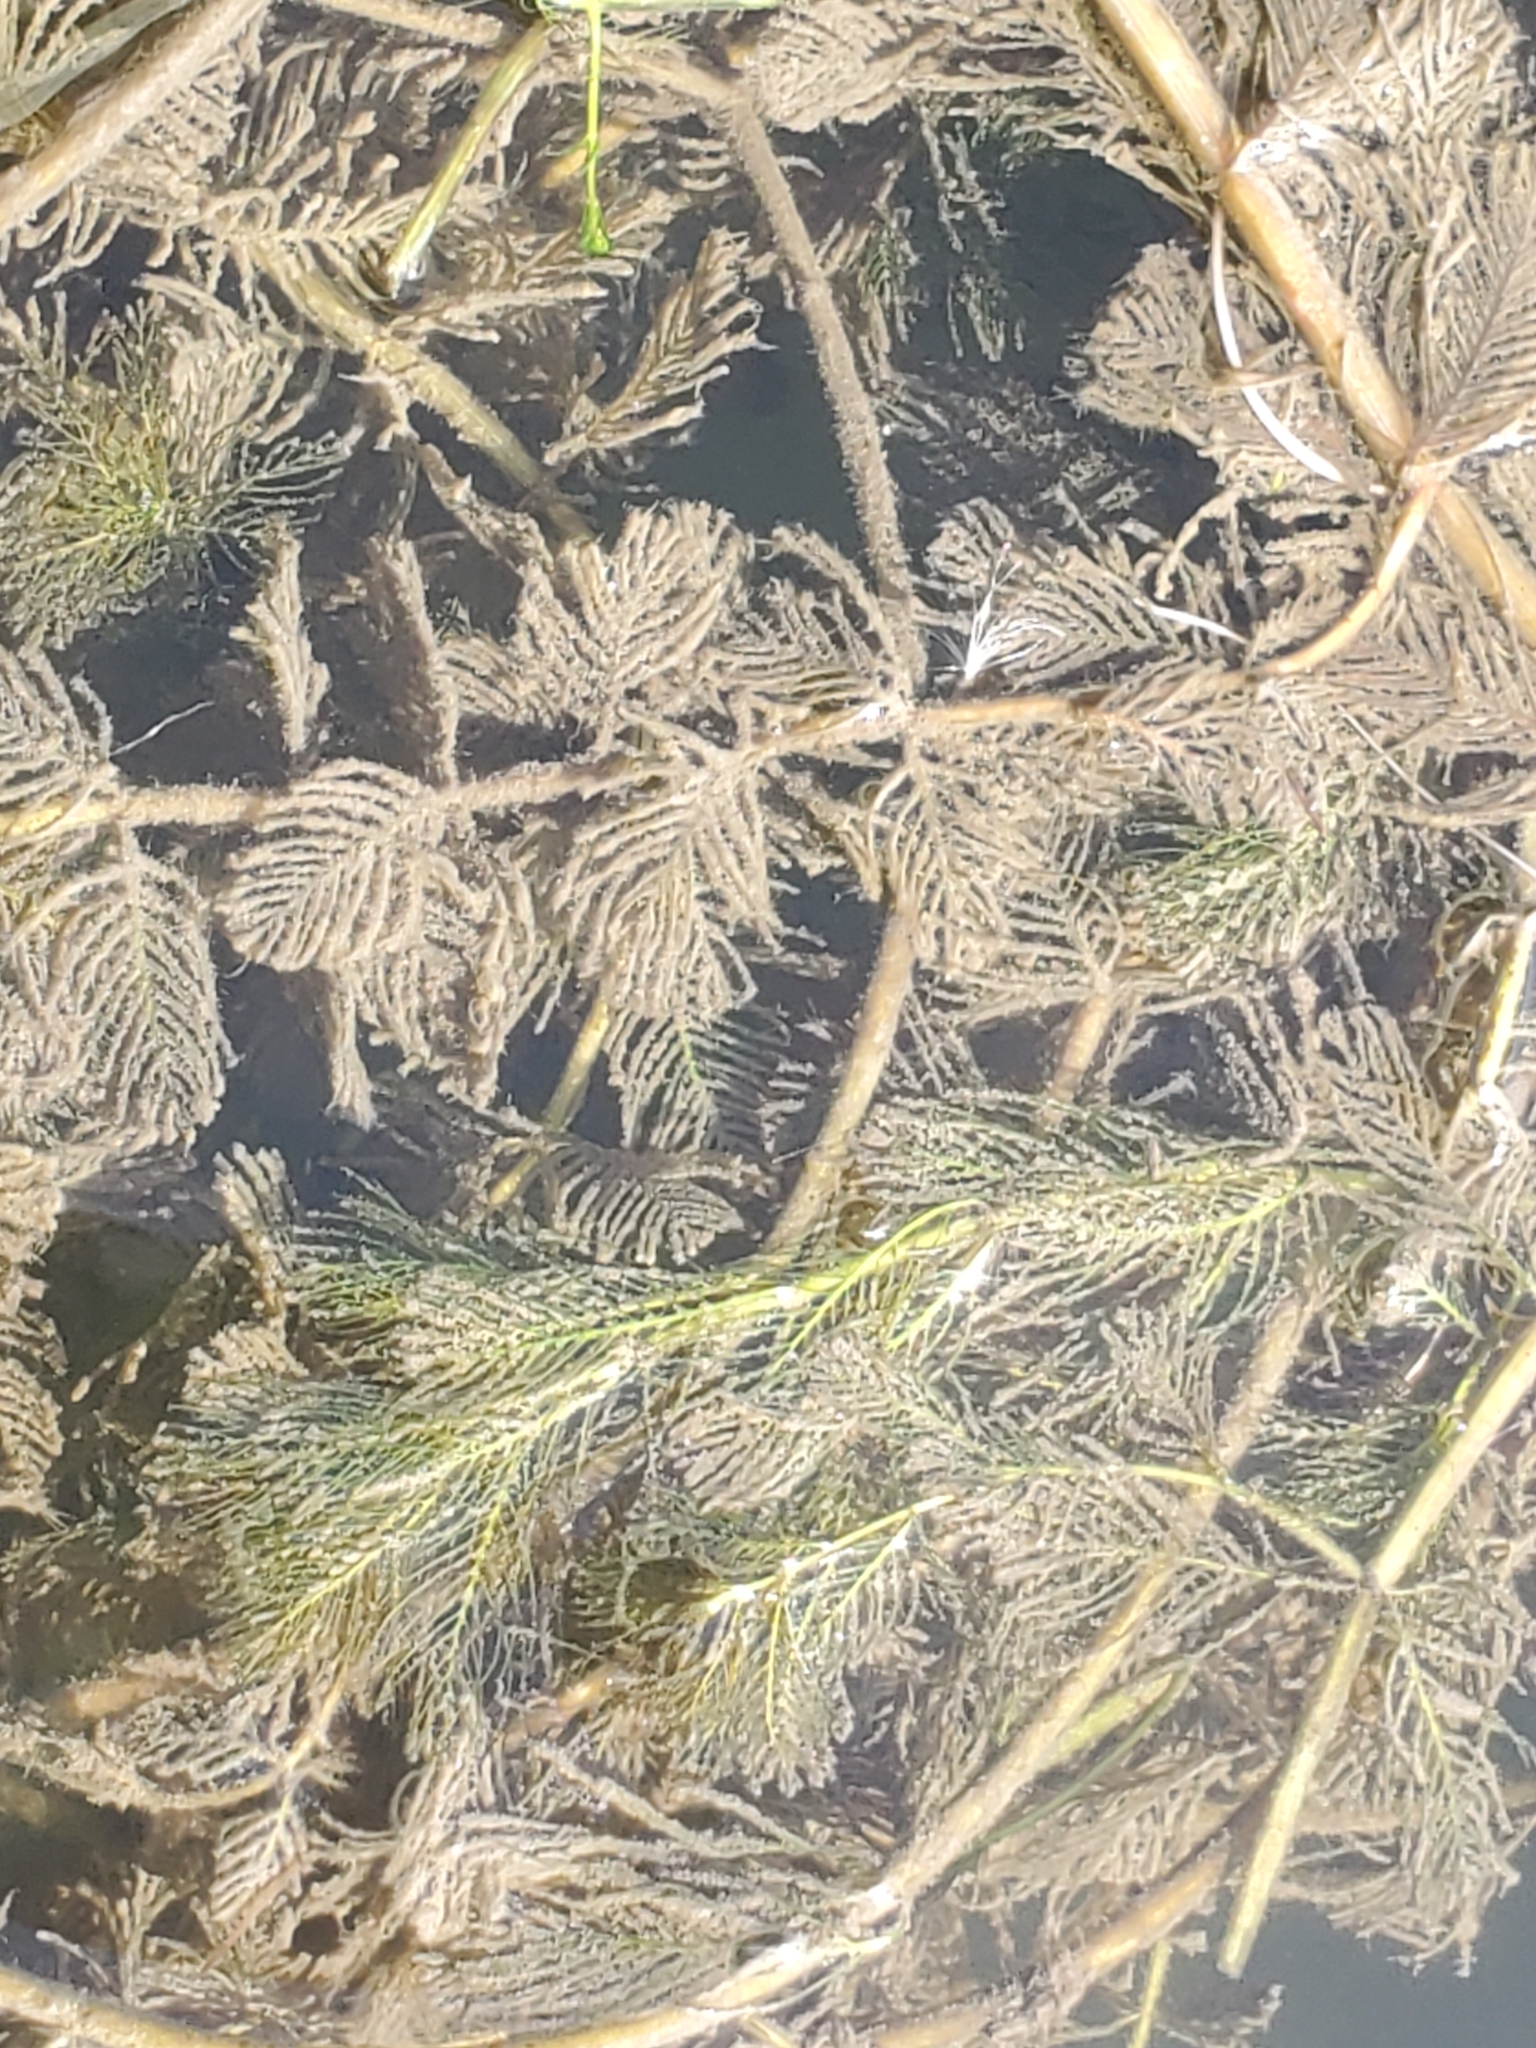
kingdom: Plantae
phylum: Tracheophyta
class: Magnoliopsida
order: Saxifragales
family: Haloragaceae
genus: Myriophyllum
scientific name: Myriophyllum spicatum
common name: Spiked water-milfoil
